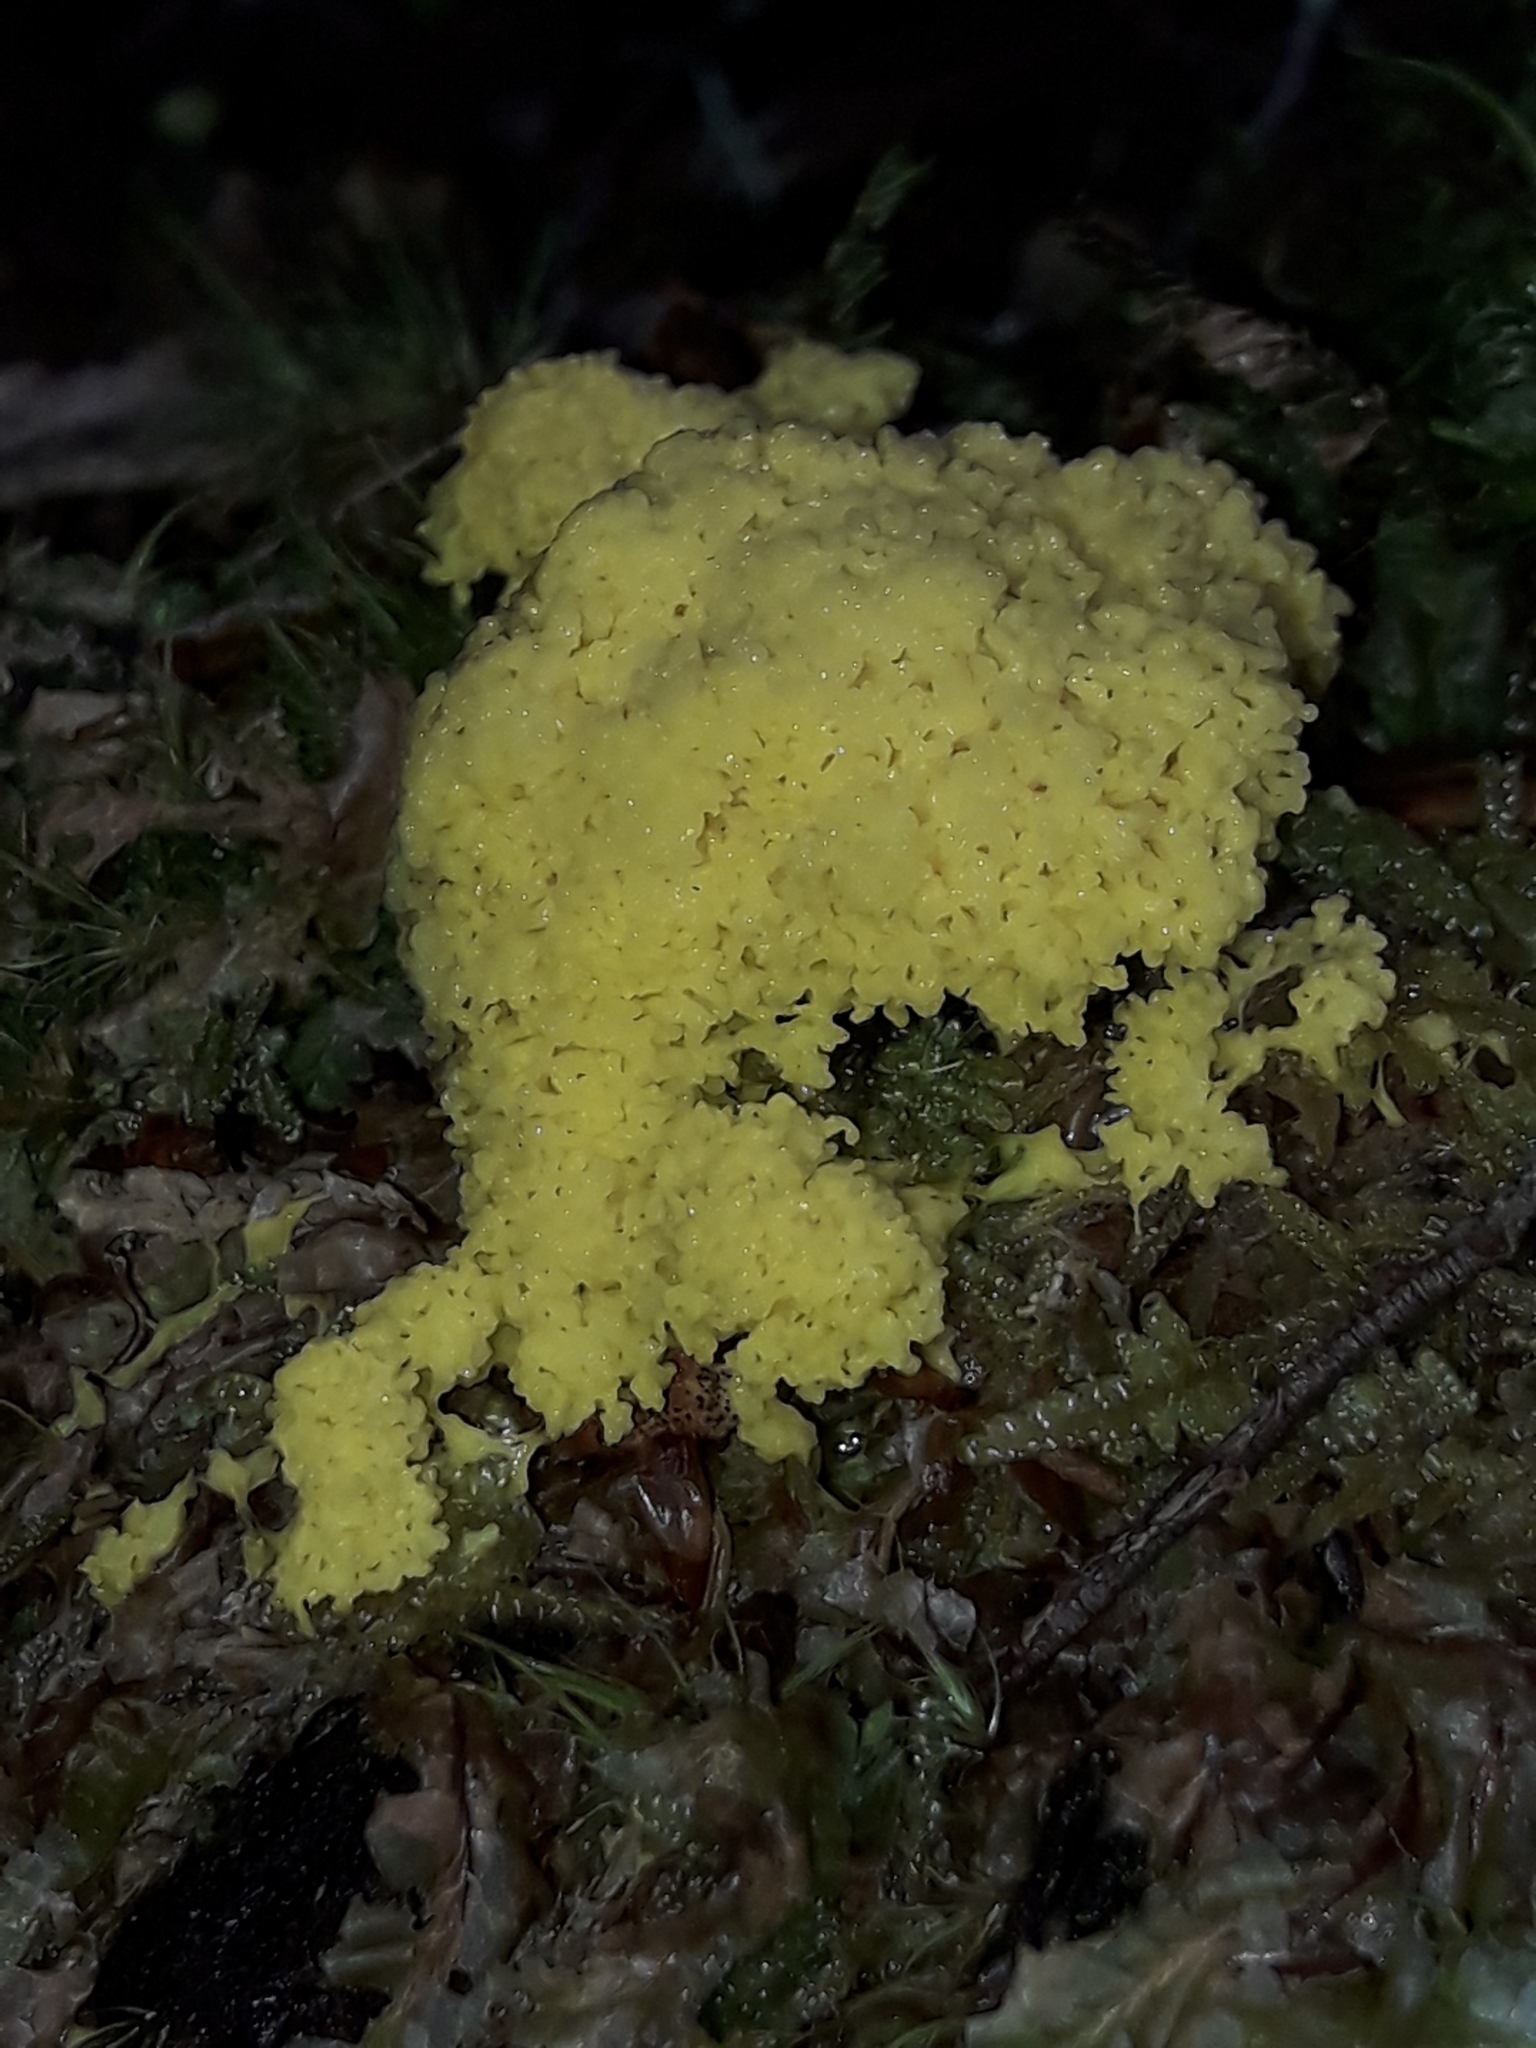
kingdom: Protozoa
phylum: Mycetozoa
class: Myxomycetes
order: Physarales
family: Physaraceae
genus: Fuligo
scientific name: Fuligo septica
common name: Dog vomit slime mold
